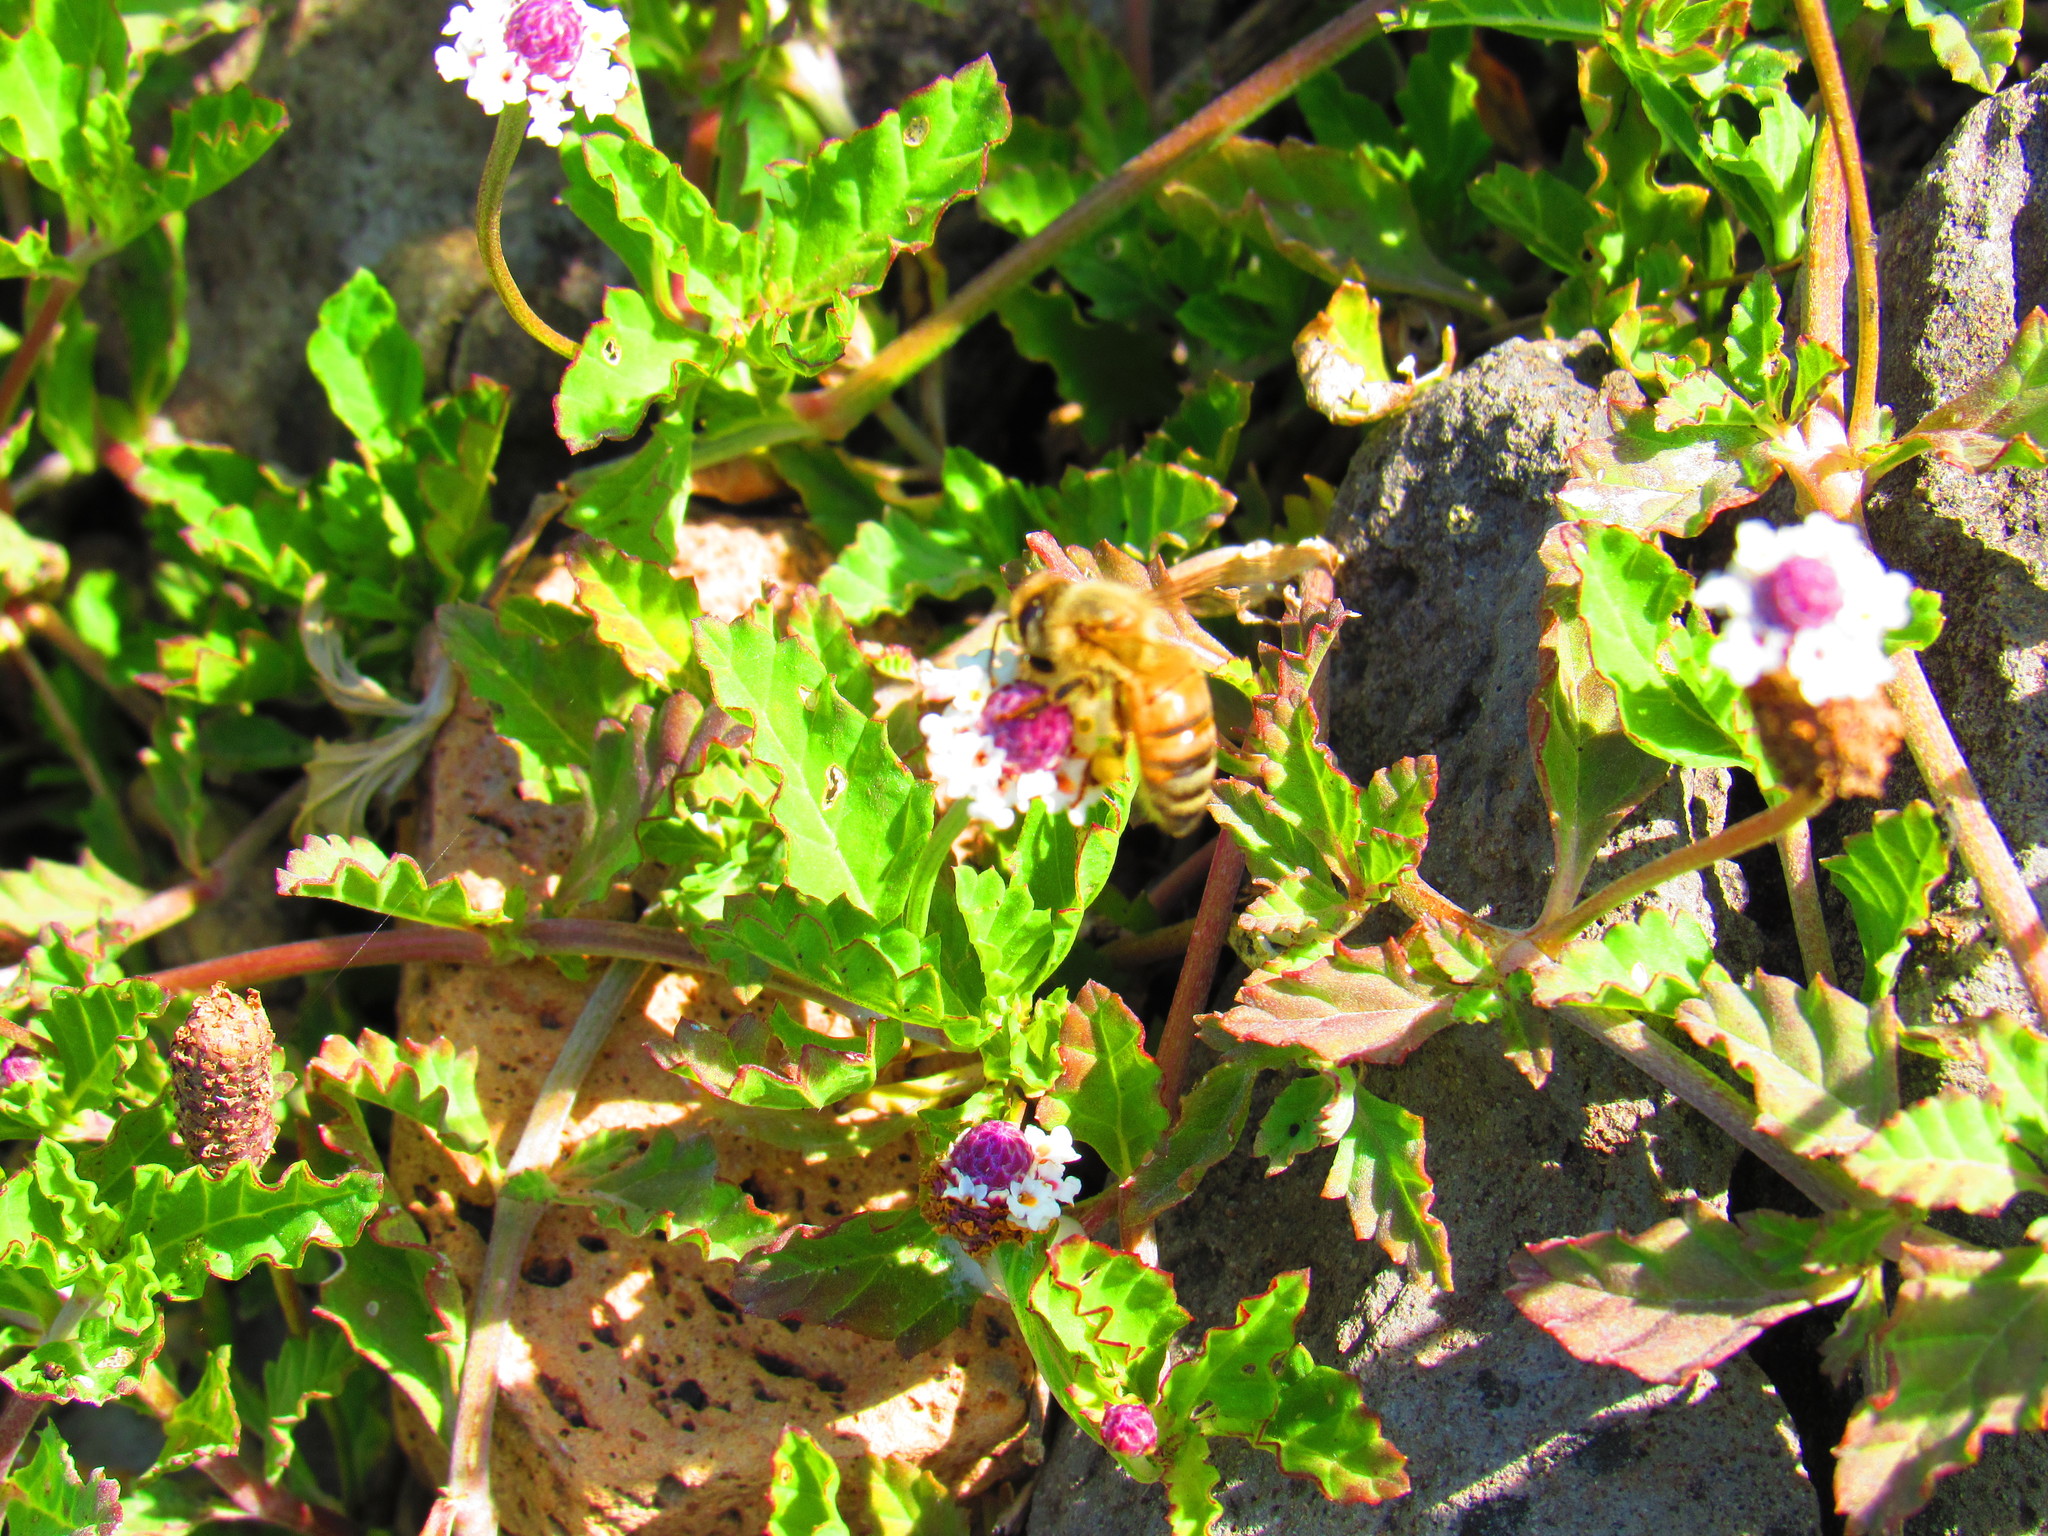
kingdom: Plantae
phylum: Tracheophyta
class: Magnoliopsida
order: Lamiales
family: Verbenaceae
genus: Phyla
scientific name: Phyla nodiflora
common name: Frogfruit
